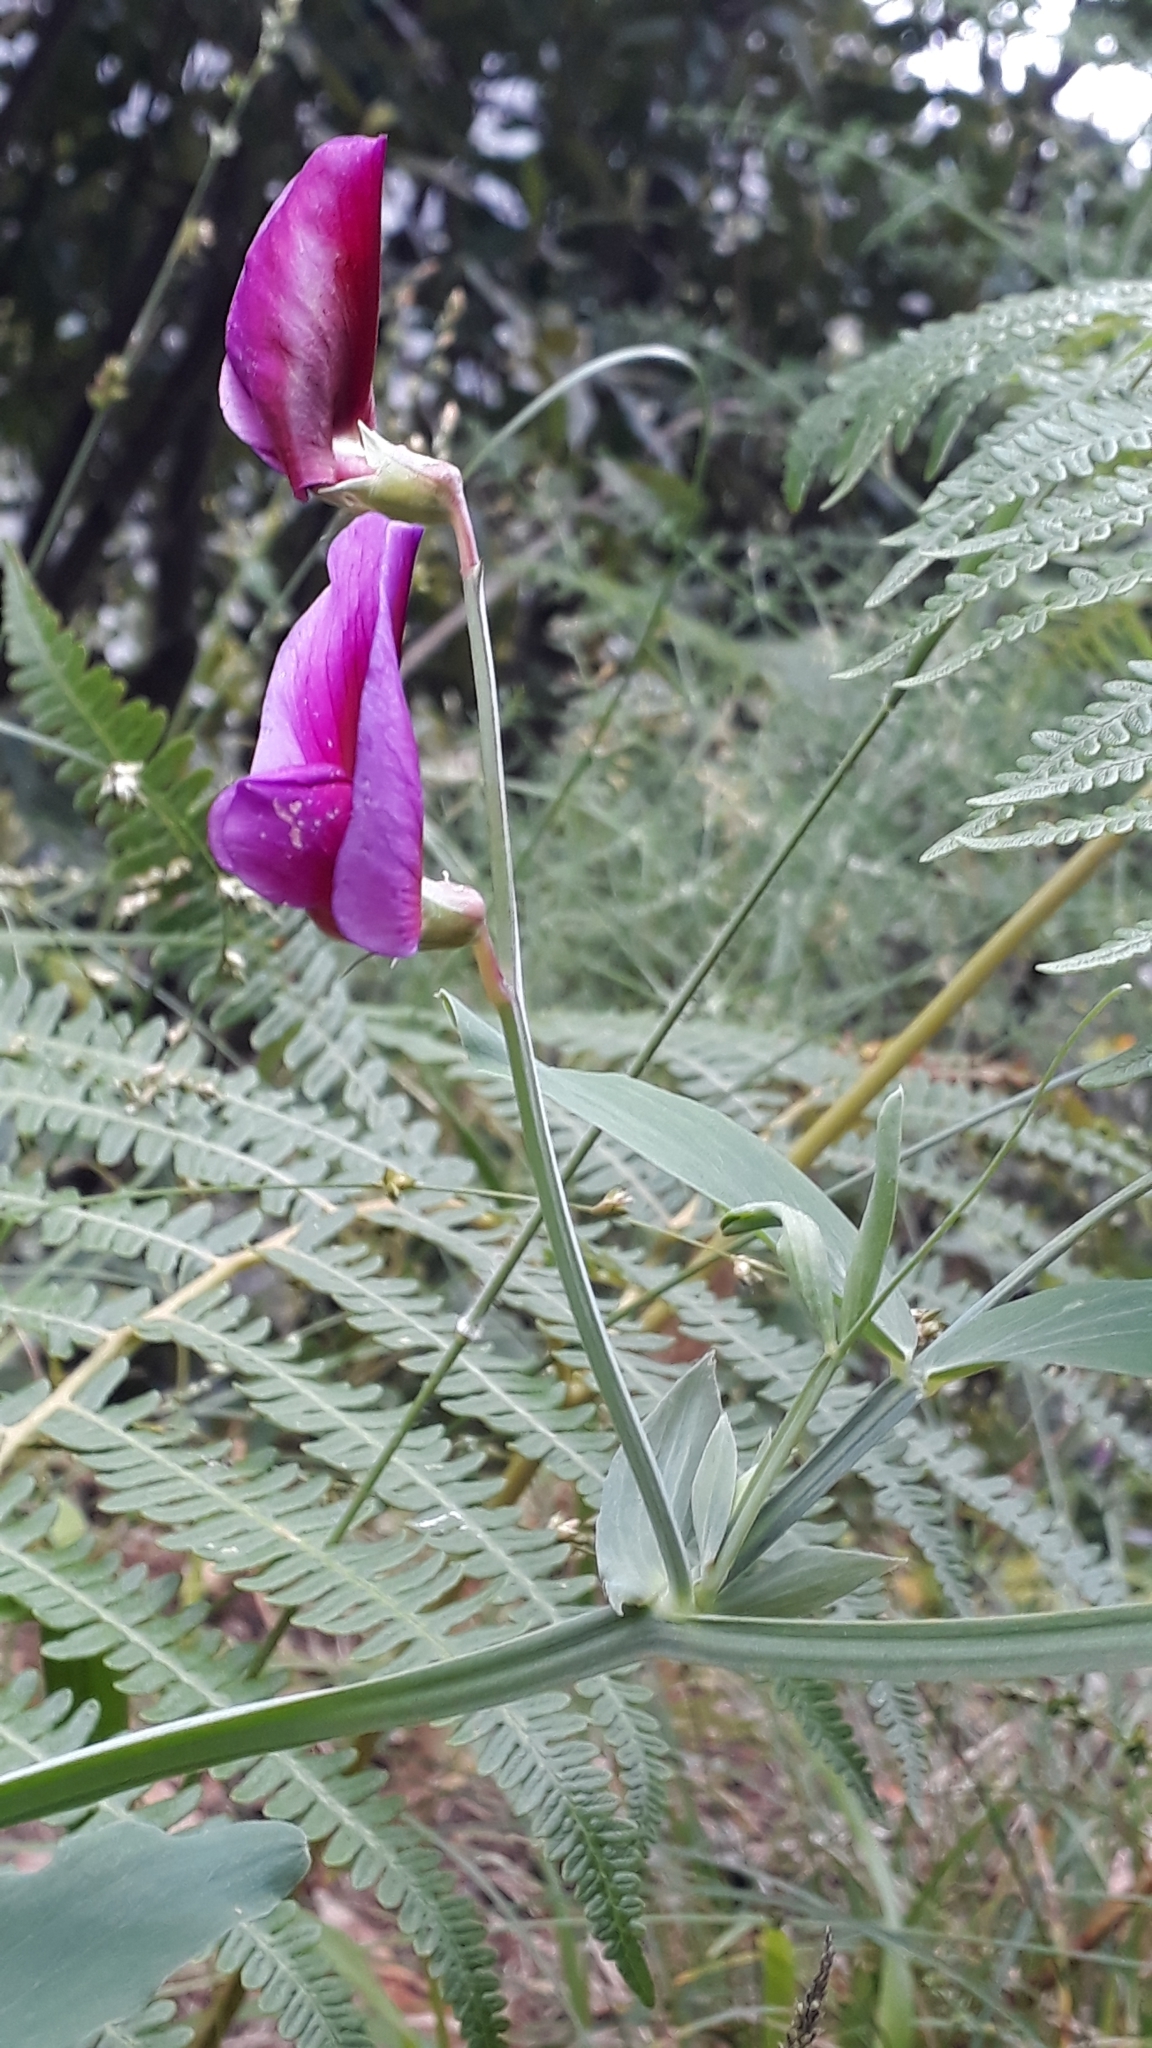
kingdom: Plantae
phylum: Tracheophyta
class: Magnoliopsida
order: Fabales
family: Fabaceae
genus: Lathyrus
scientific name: Lathyrus tingitanus
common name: Tangier pea
